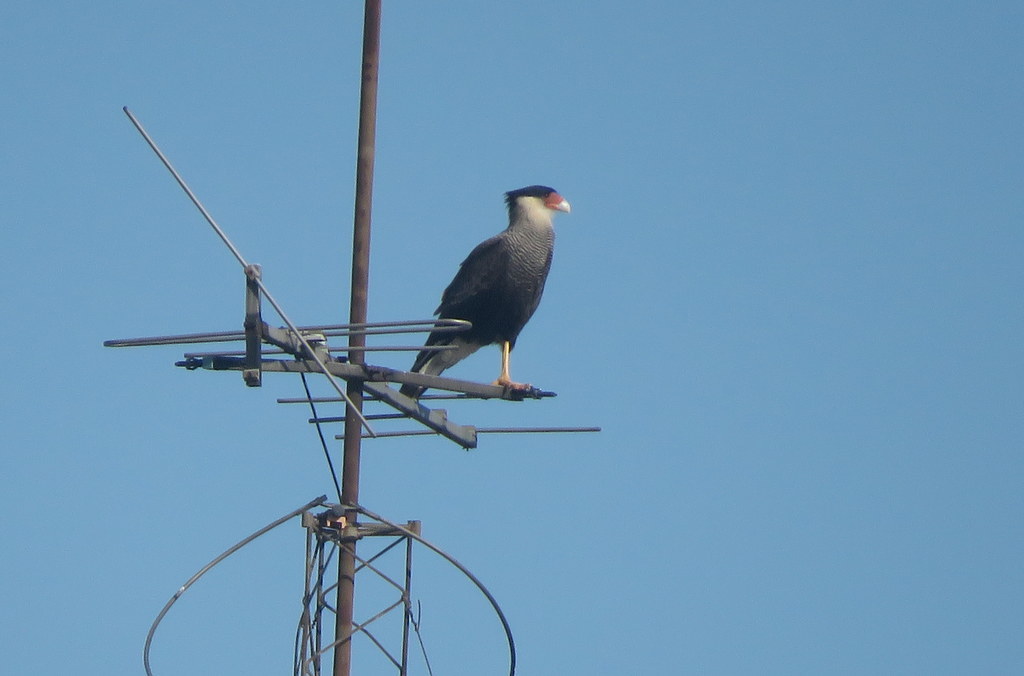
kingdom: Animalia
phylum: Chordata
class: Aves
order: Falconiformes
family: Falconidae
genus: Caracara
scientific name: Caracara plancus
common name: Southern caracara
